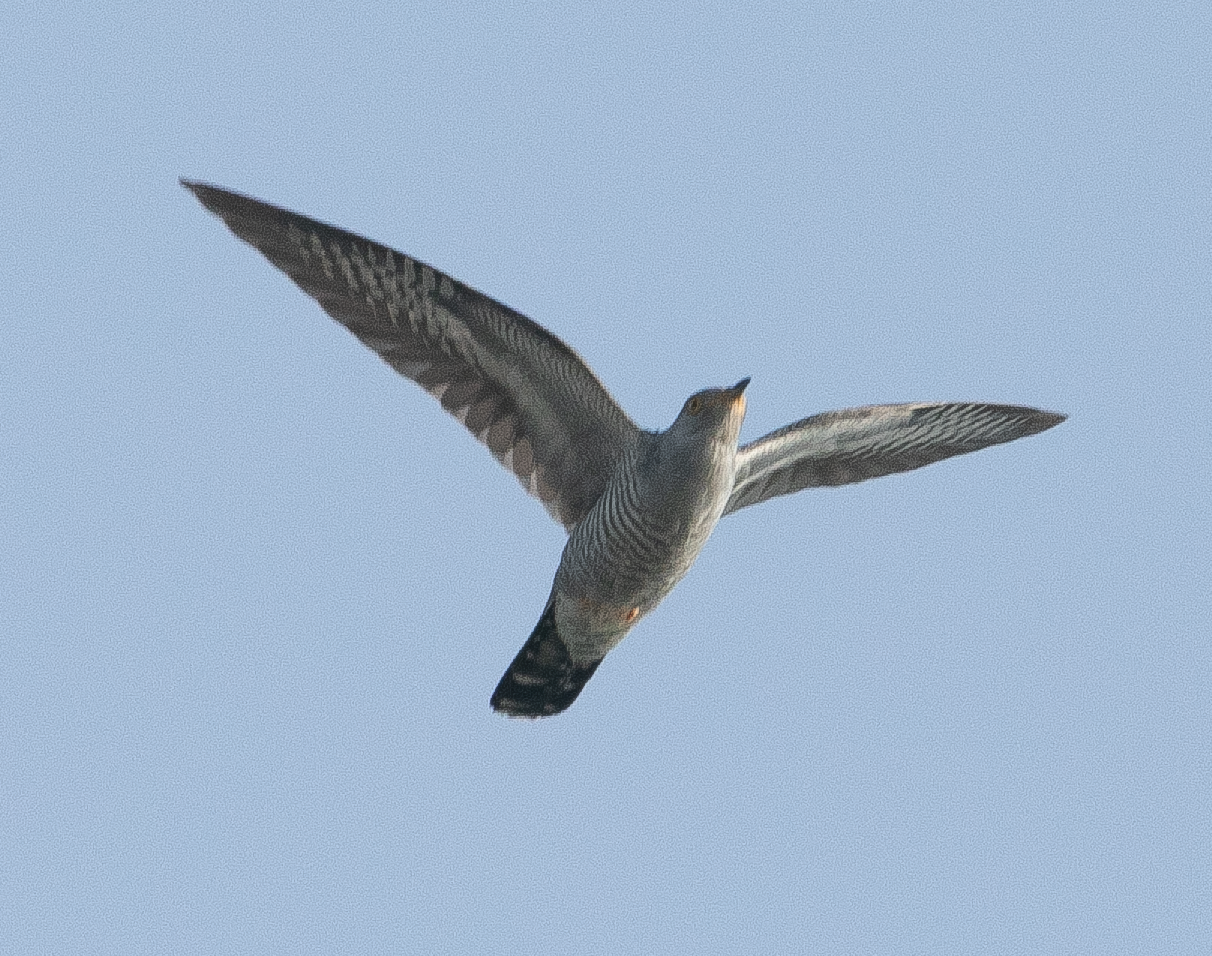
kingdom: Animalia
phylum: Chordata
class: Aves
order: Cuculiformes
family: Cuculidae
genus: Cuculus
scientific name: Cuculus canorus
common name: Common cuckoo
